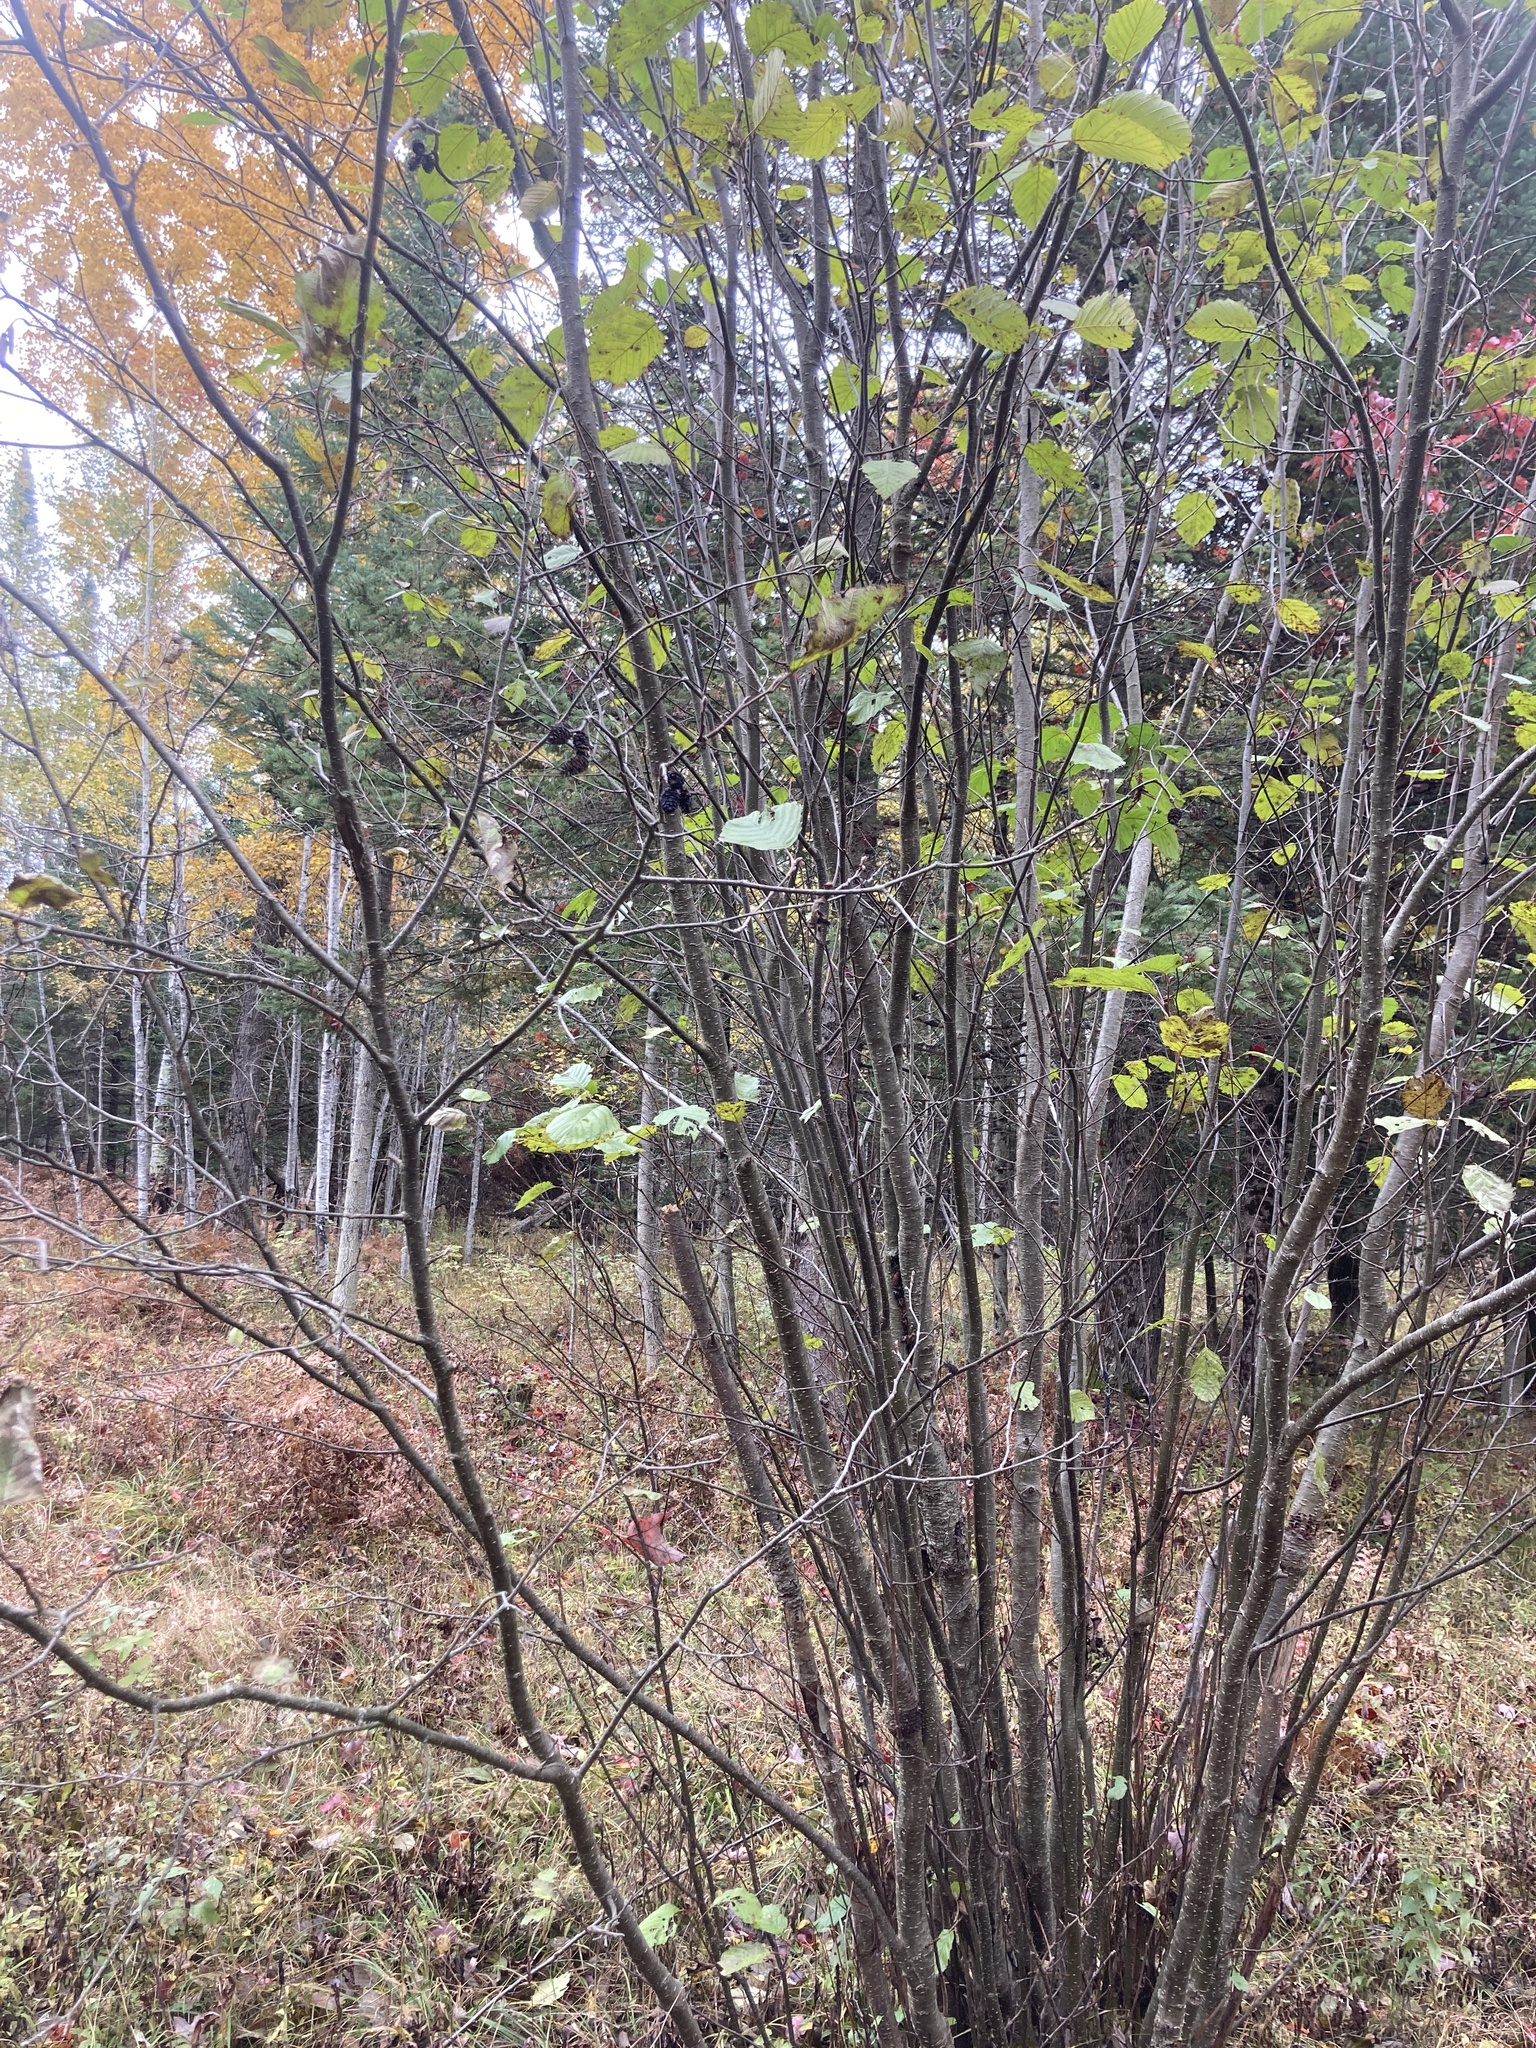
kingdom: Plantae
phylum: Tracheophyta
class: Magnoliopsida
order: Fagales
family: Betulaceae
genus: Alnus
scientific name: Alnus incana
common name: Grey alder
